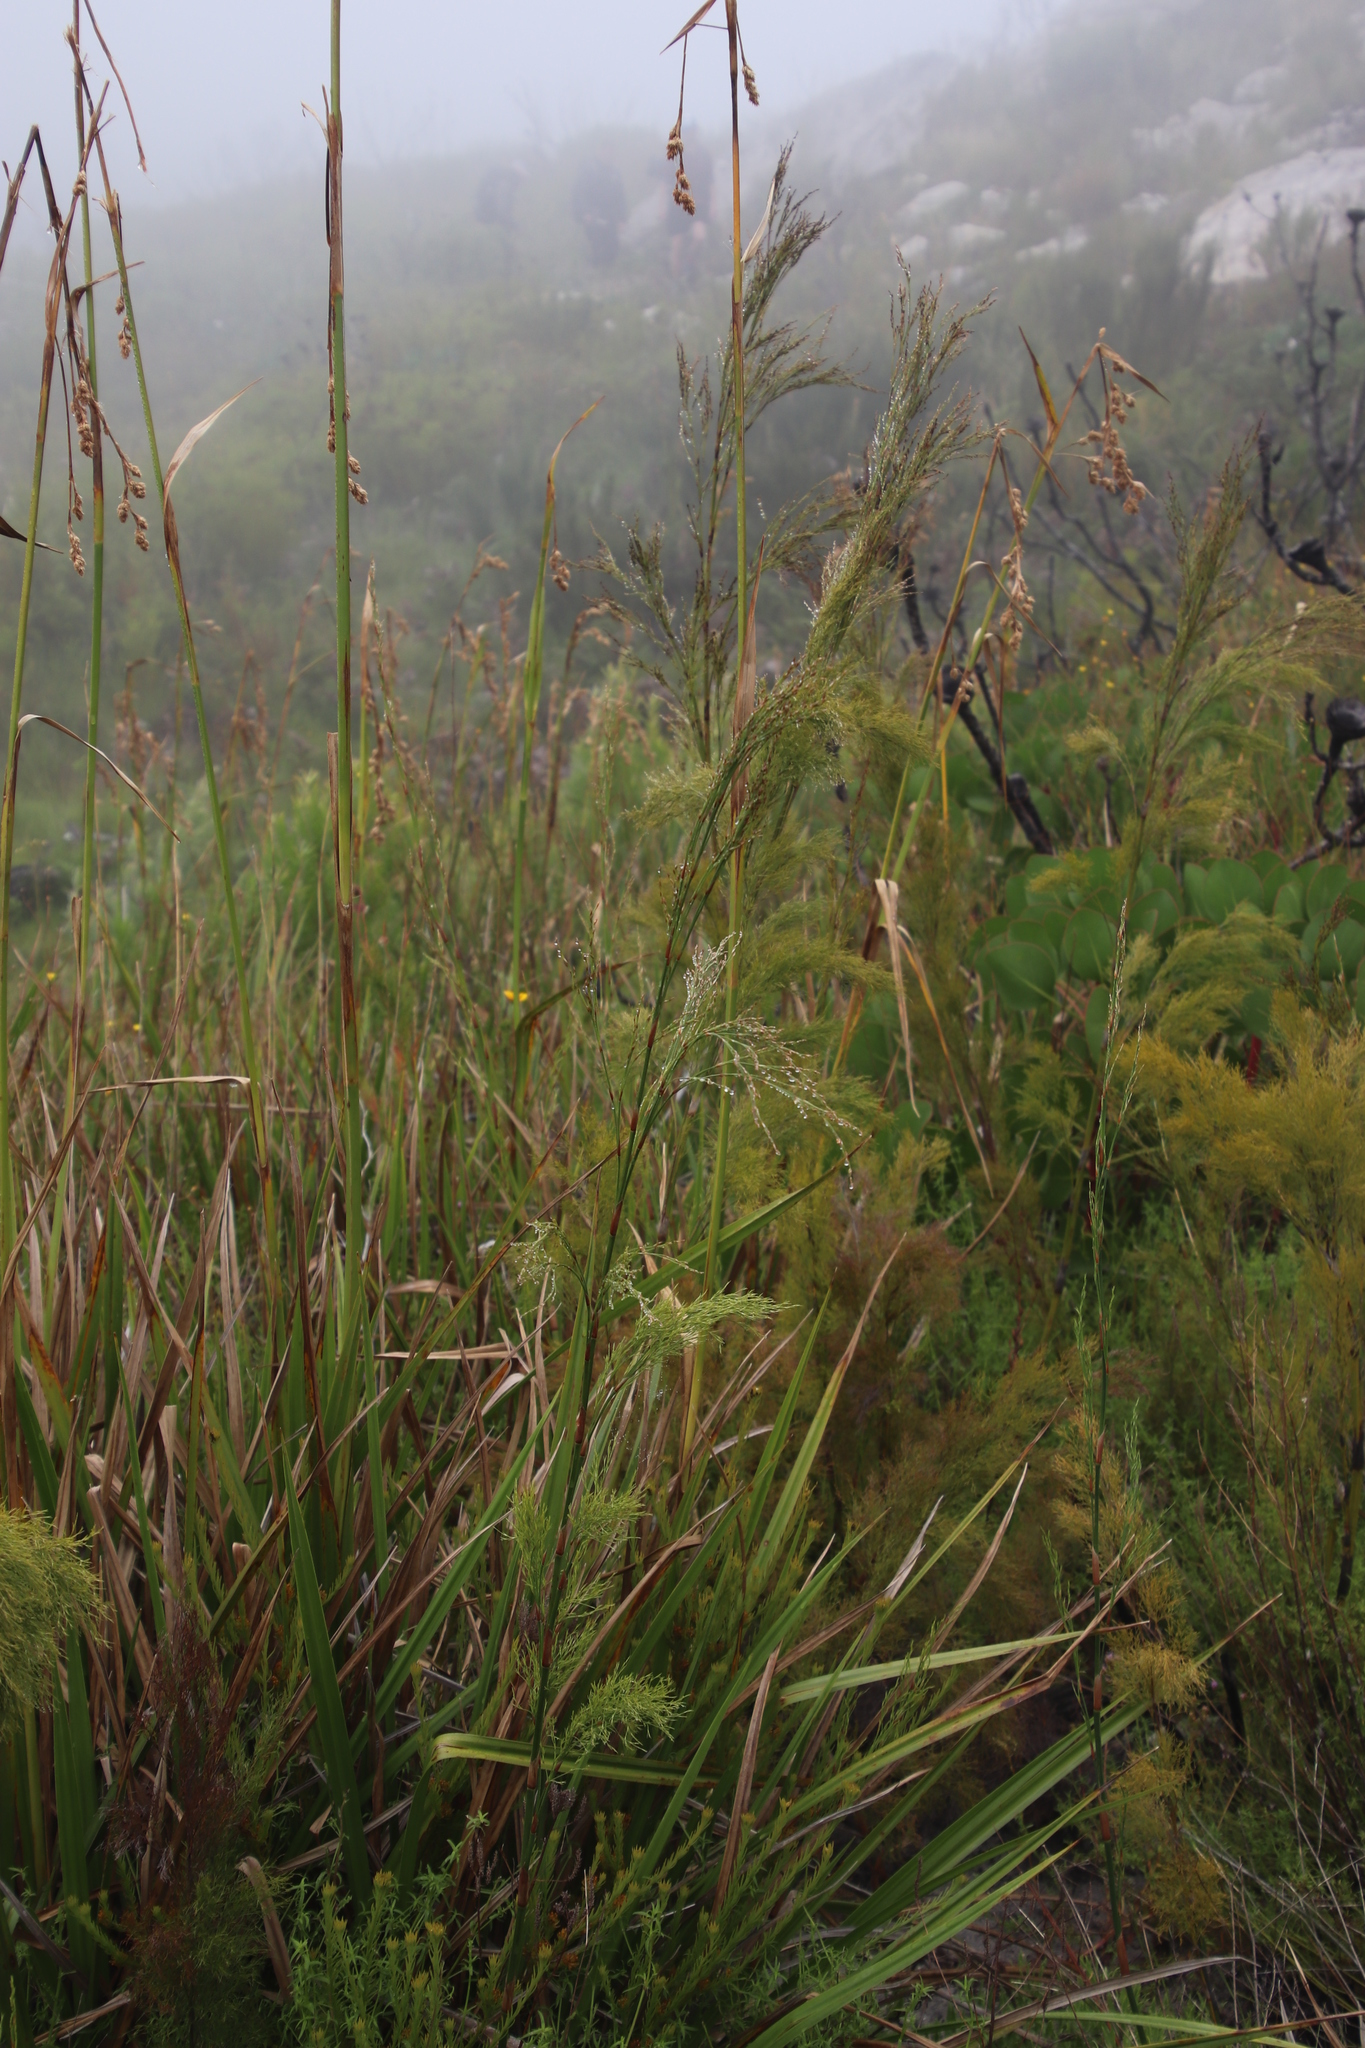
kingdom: Plantae
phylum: Tracheophyta
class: Liliopsida
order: Poales
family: Restionaceae
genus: Restio
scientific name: Restio paniculatus
